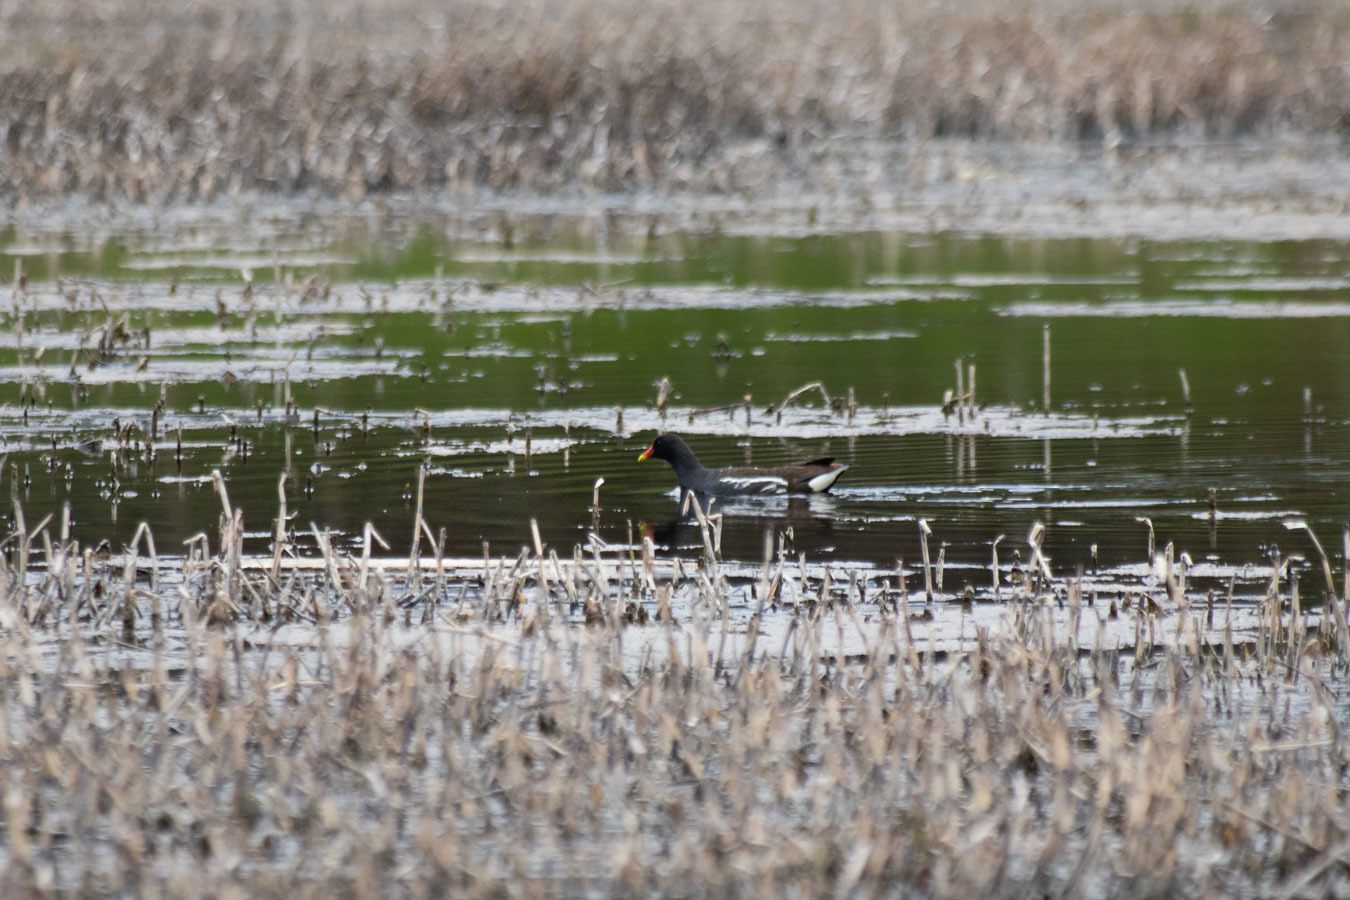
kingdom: Animalia
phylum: Chordata
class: Aves
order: Gruiformes
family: Rallidae
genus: Gallinula
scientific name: Gallinula chloropus
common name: Common moorhen
